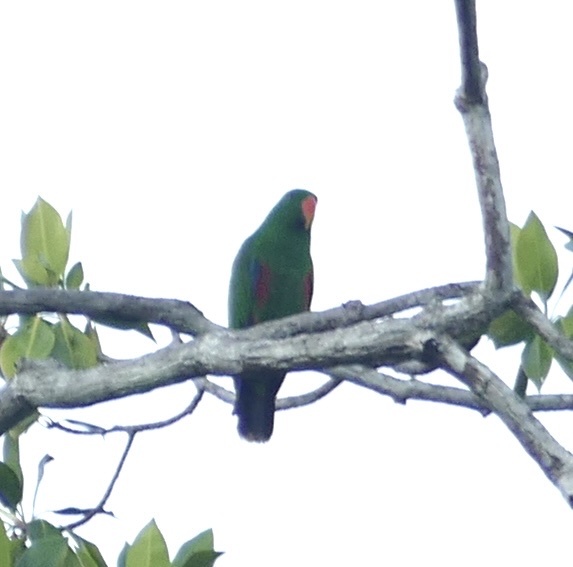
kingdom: Animalia
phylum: Chordata
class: Aves
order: Psittaciformes
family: Psittacidae
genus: Eclectus
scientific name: Eclectus roratus
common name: Eclectus parrot
